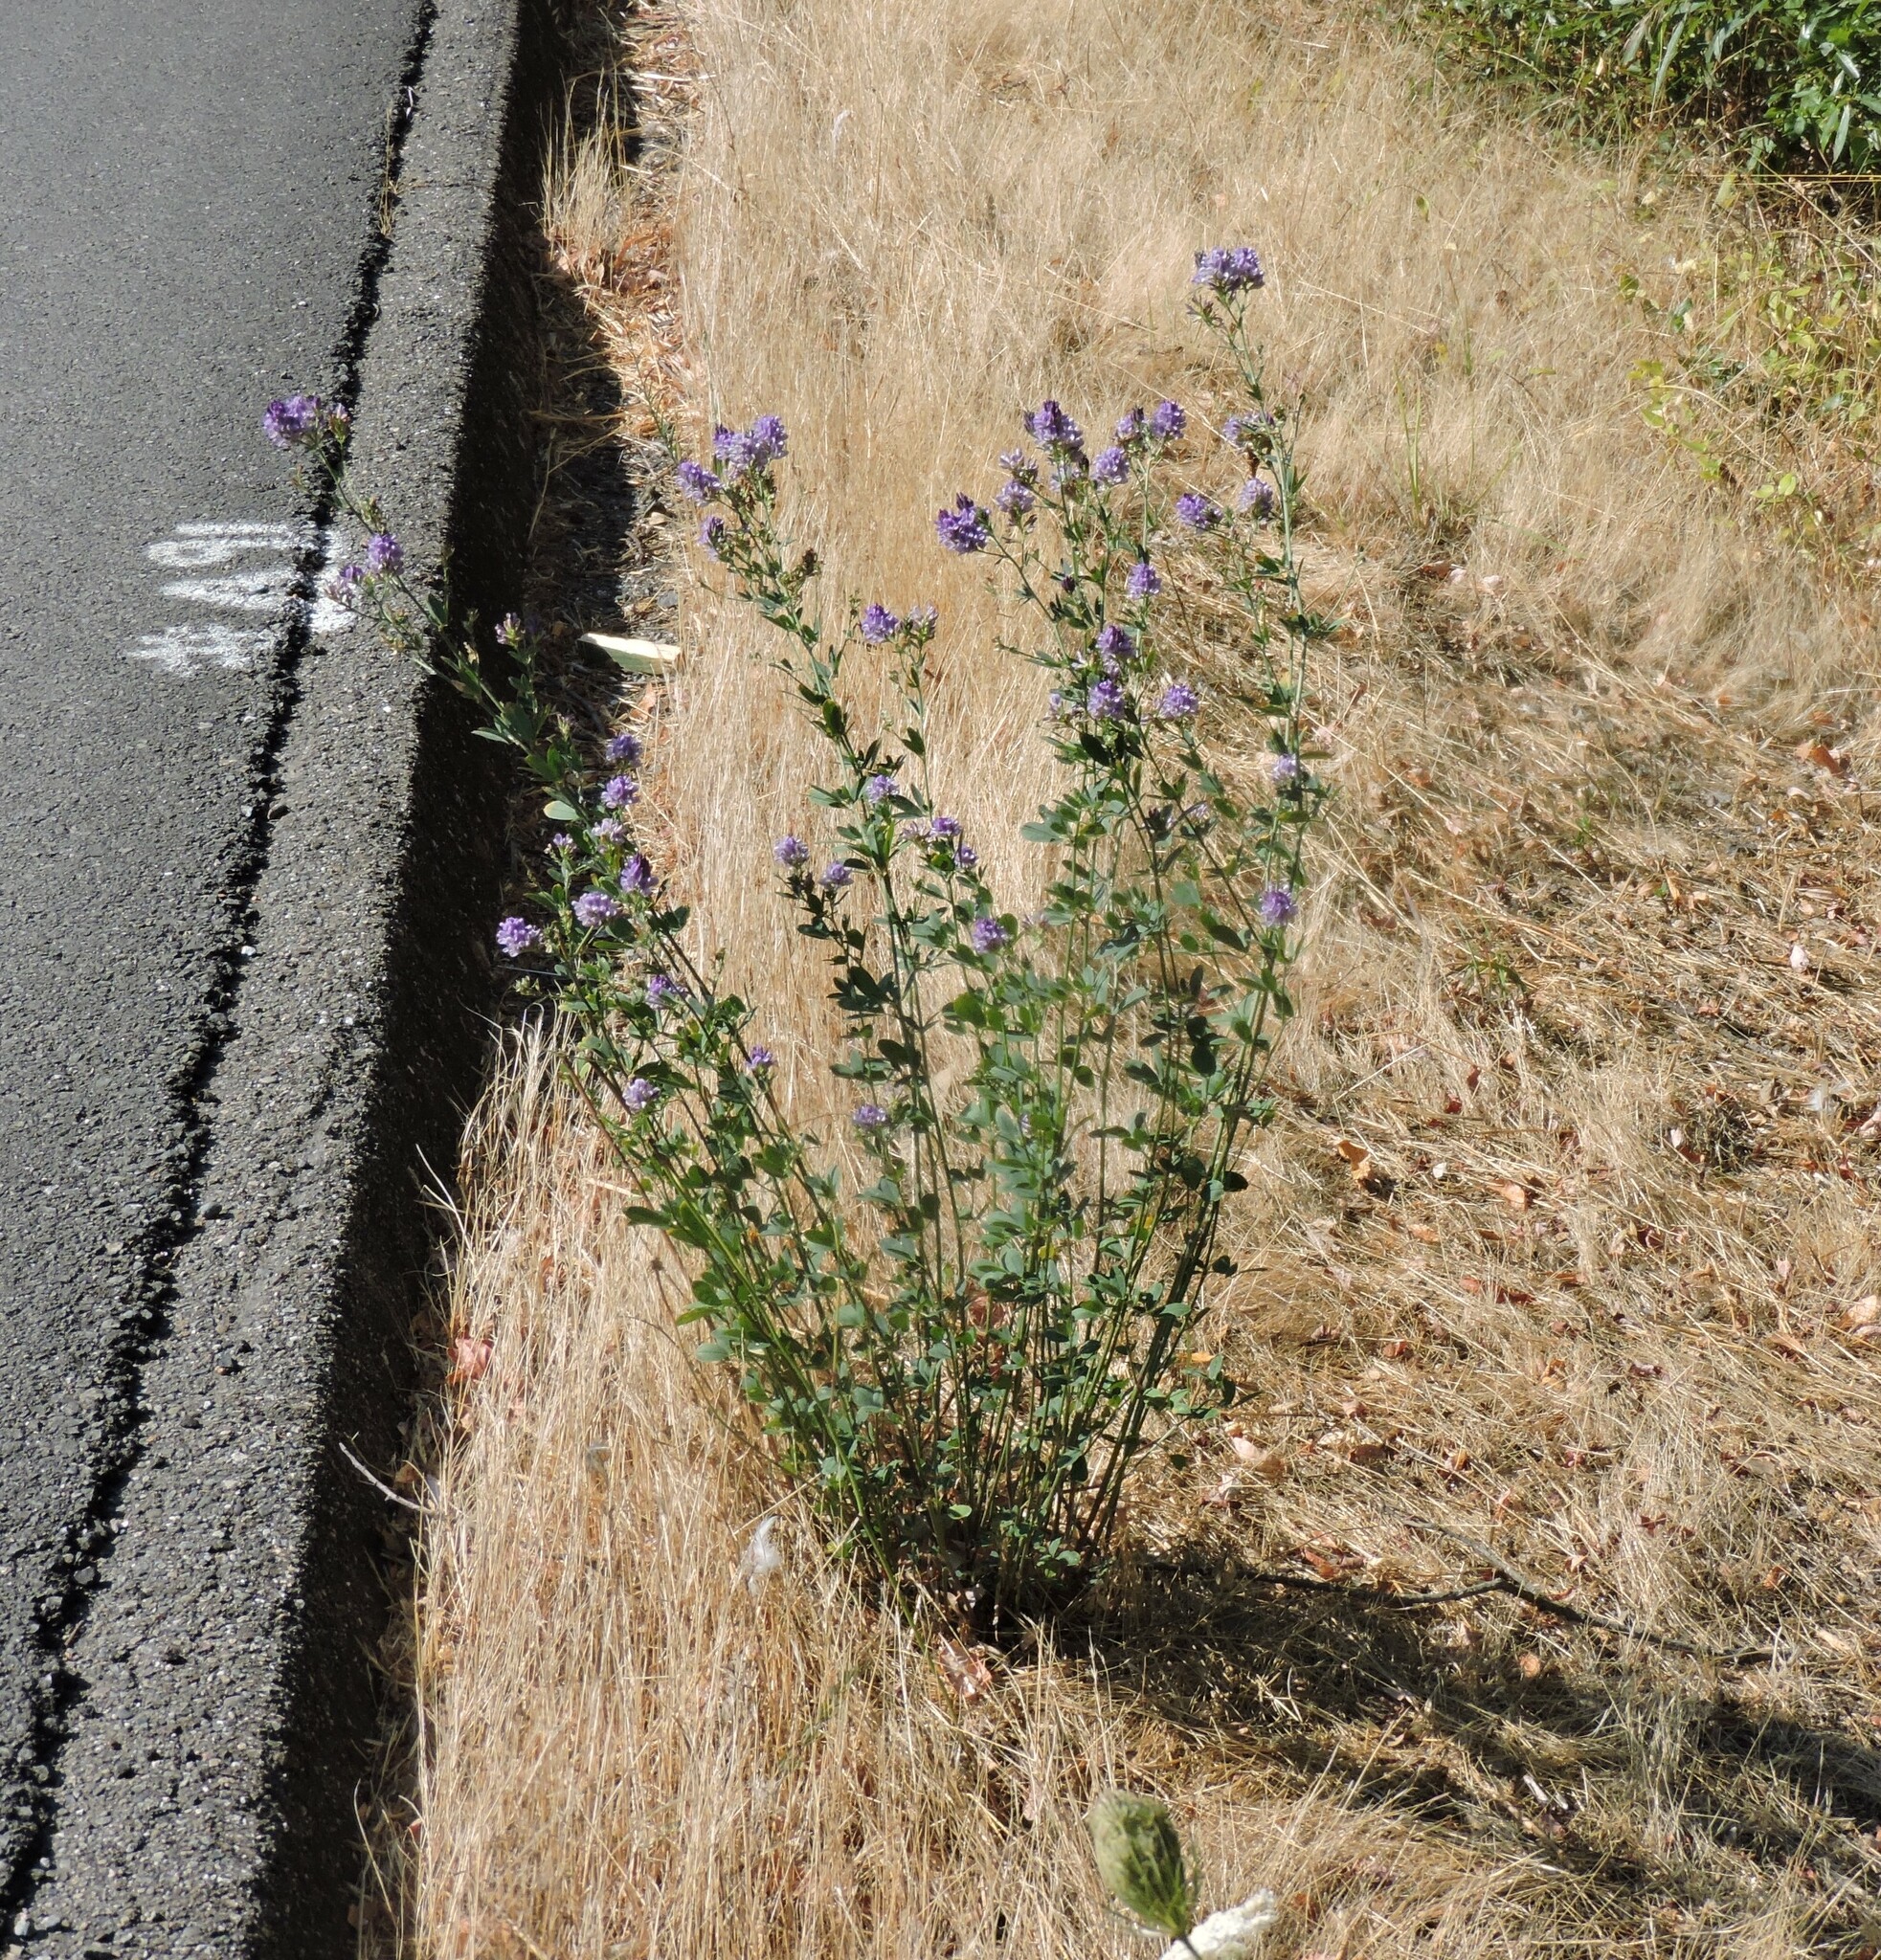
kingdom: Plantae
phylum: Tracheophyta
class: Magnoliopsida
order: Fabales
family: Fabaceae
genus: Medicago
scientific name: Medicago sativa
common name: Alfalfa
